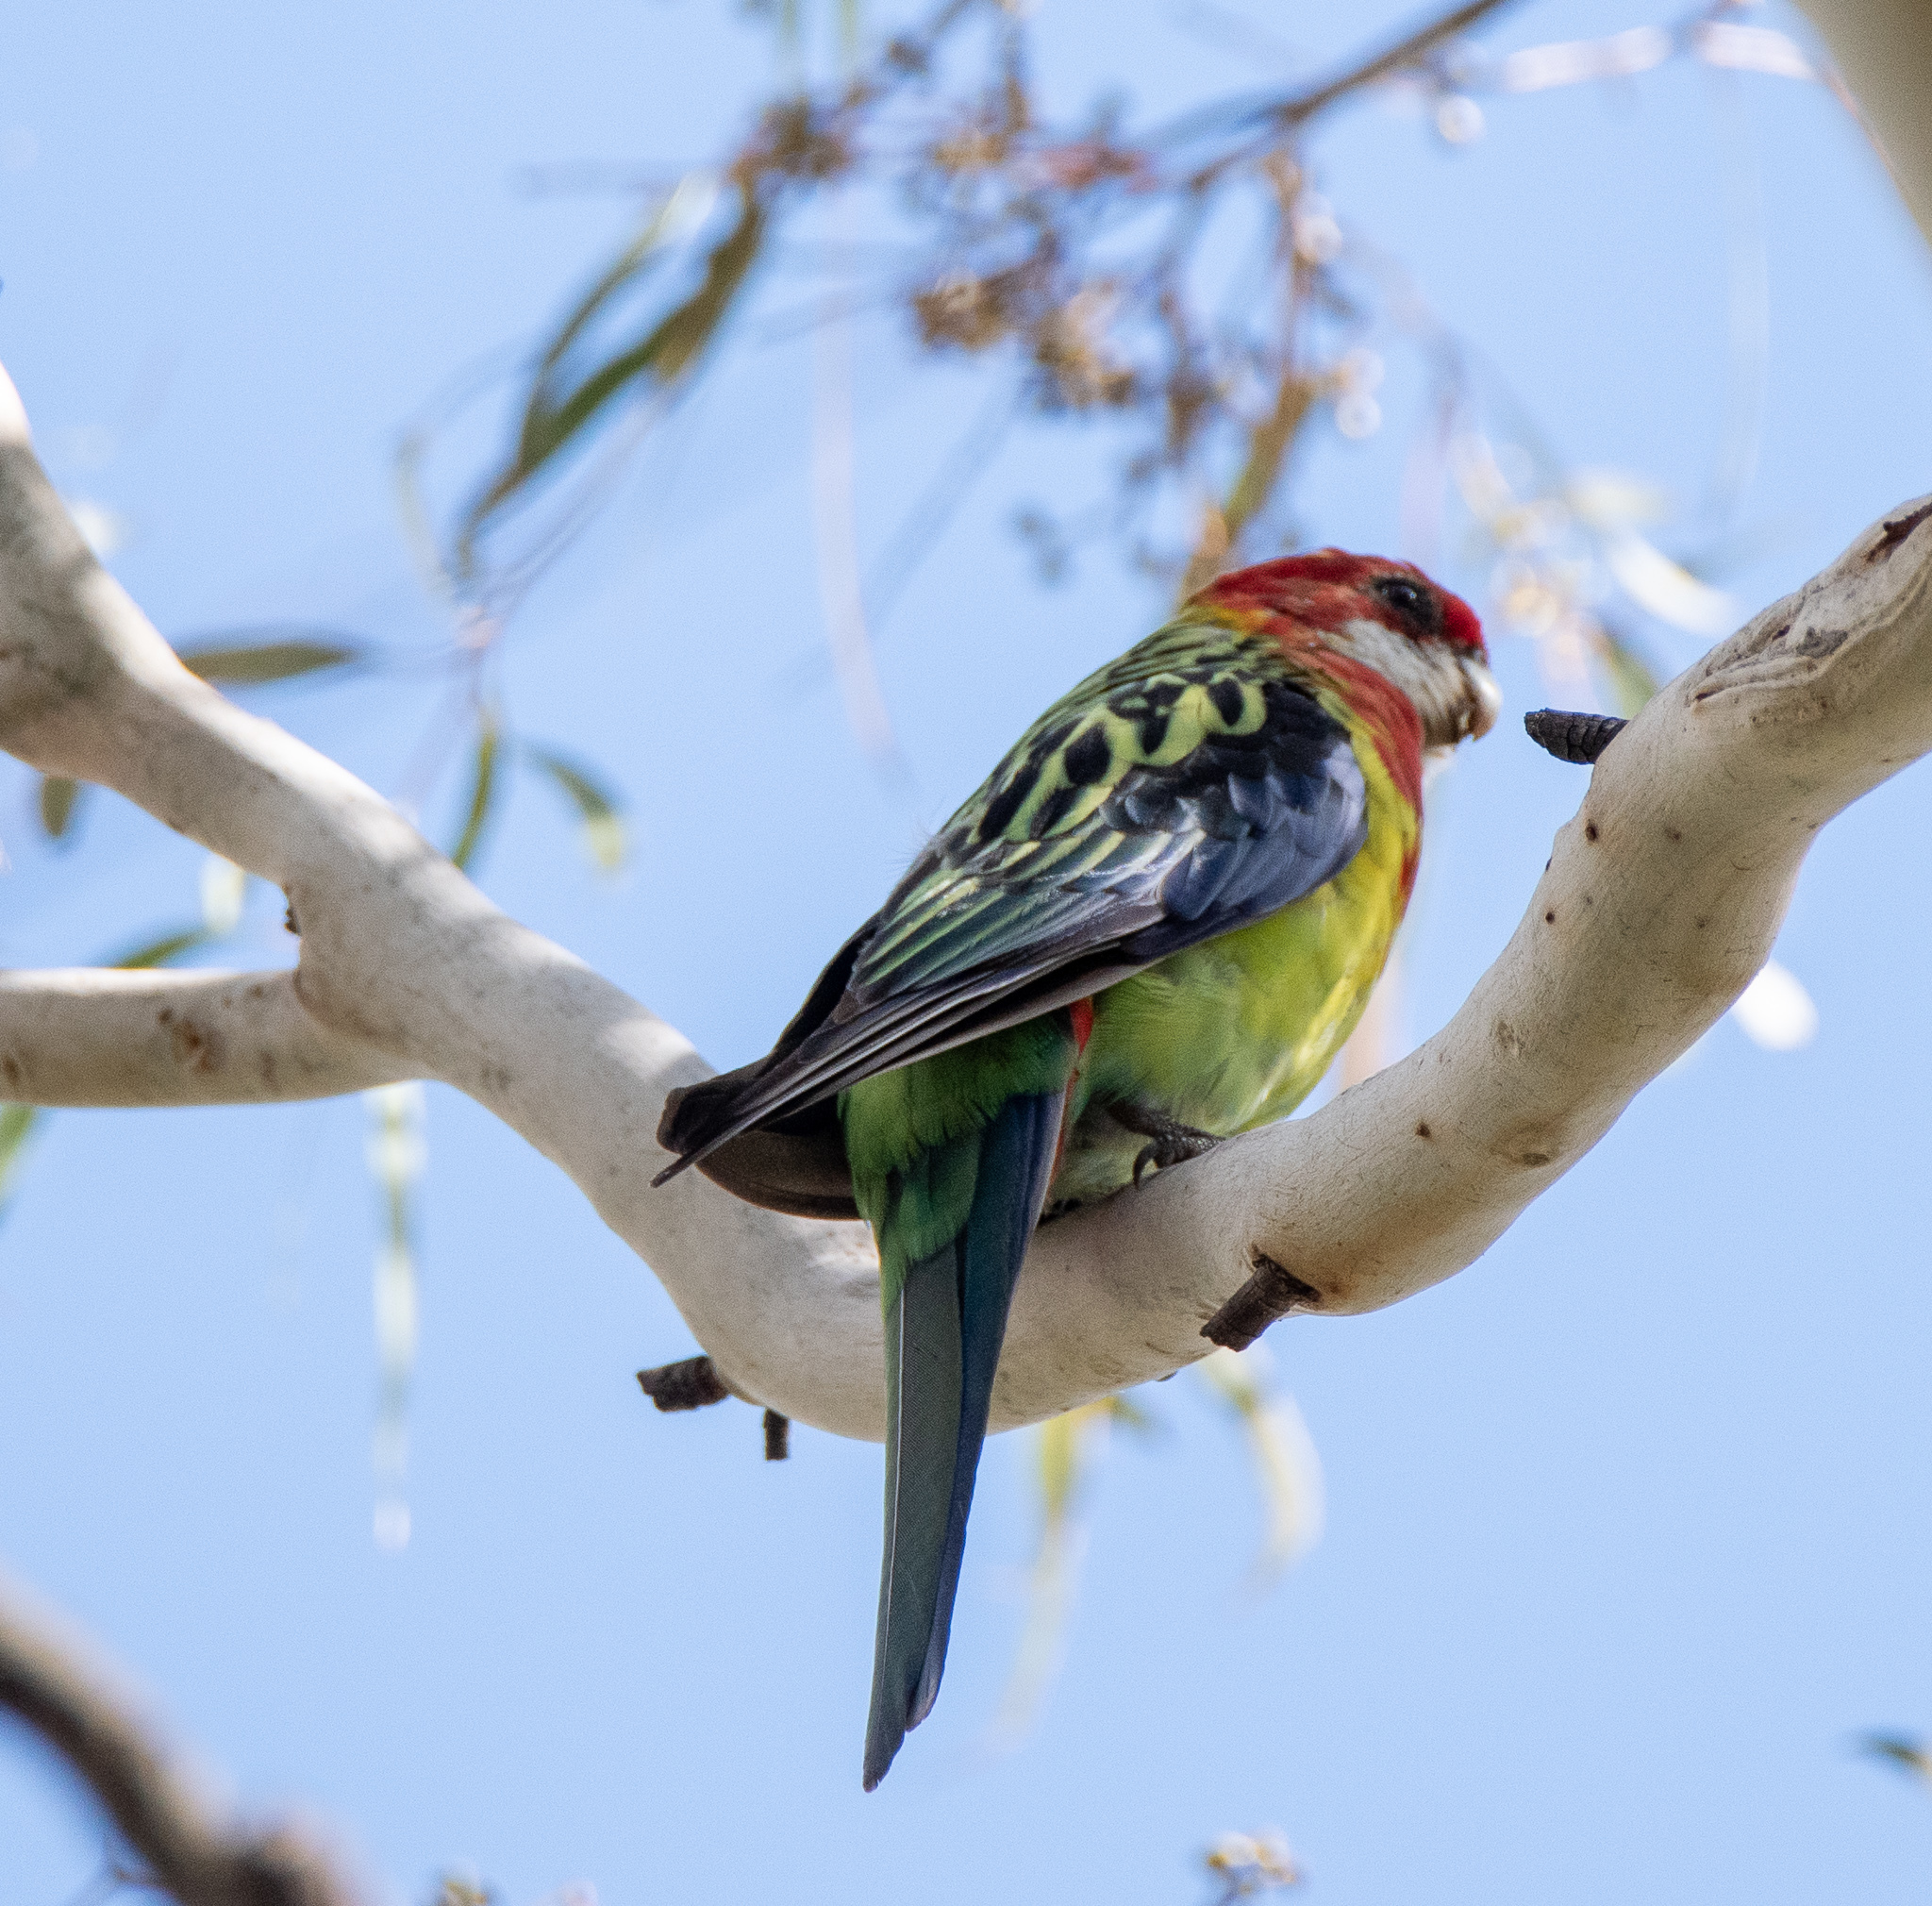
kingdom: Animalia
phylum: Chordata
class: Aves
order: Psittaciformes
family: Psittacidae
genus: Platycercus
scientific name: Platycercus eximius
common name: Eastern rosella
